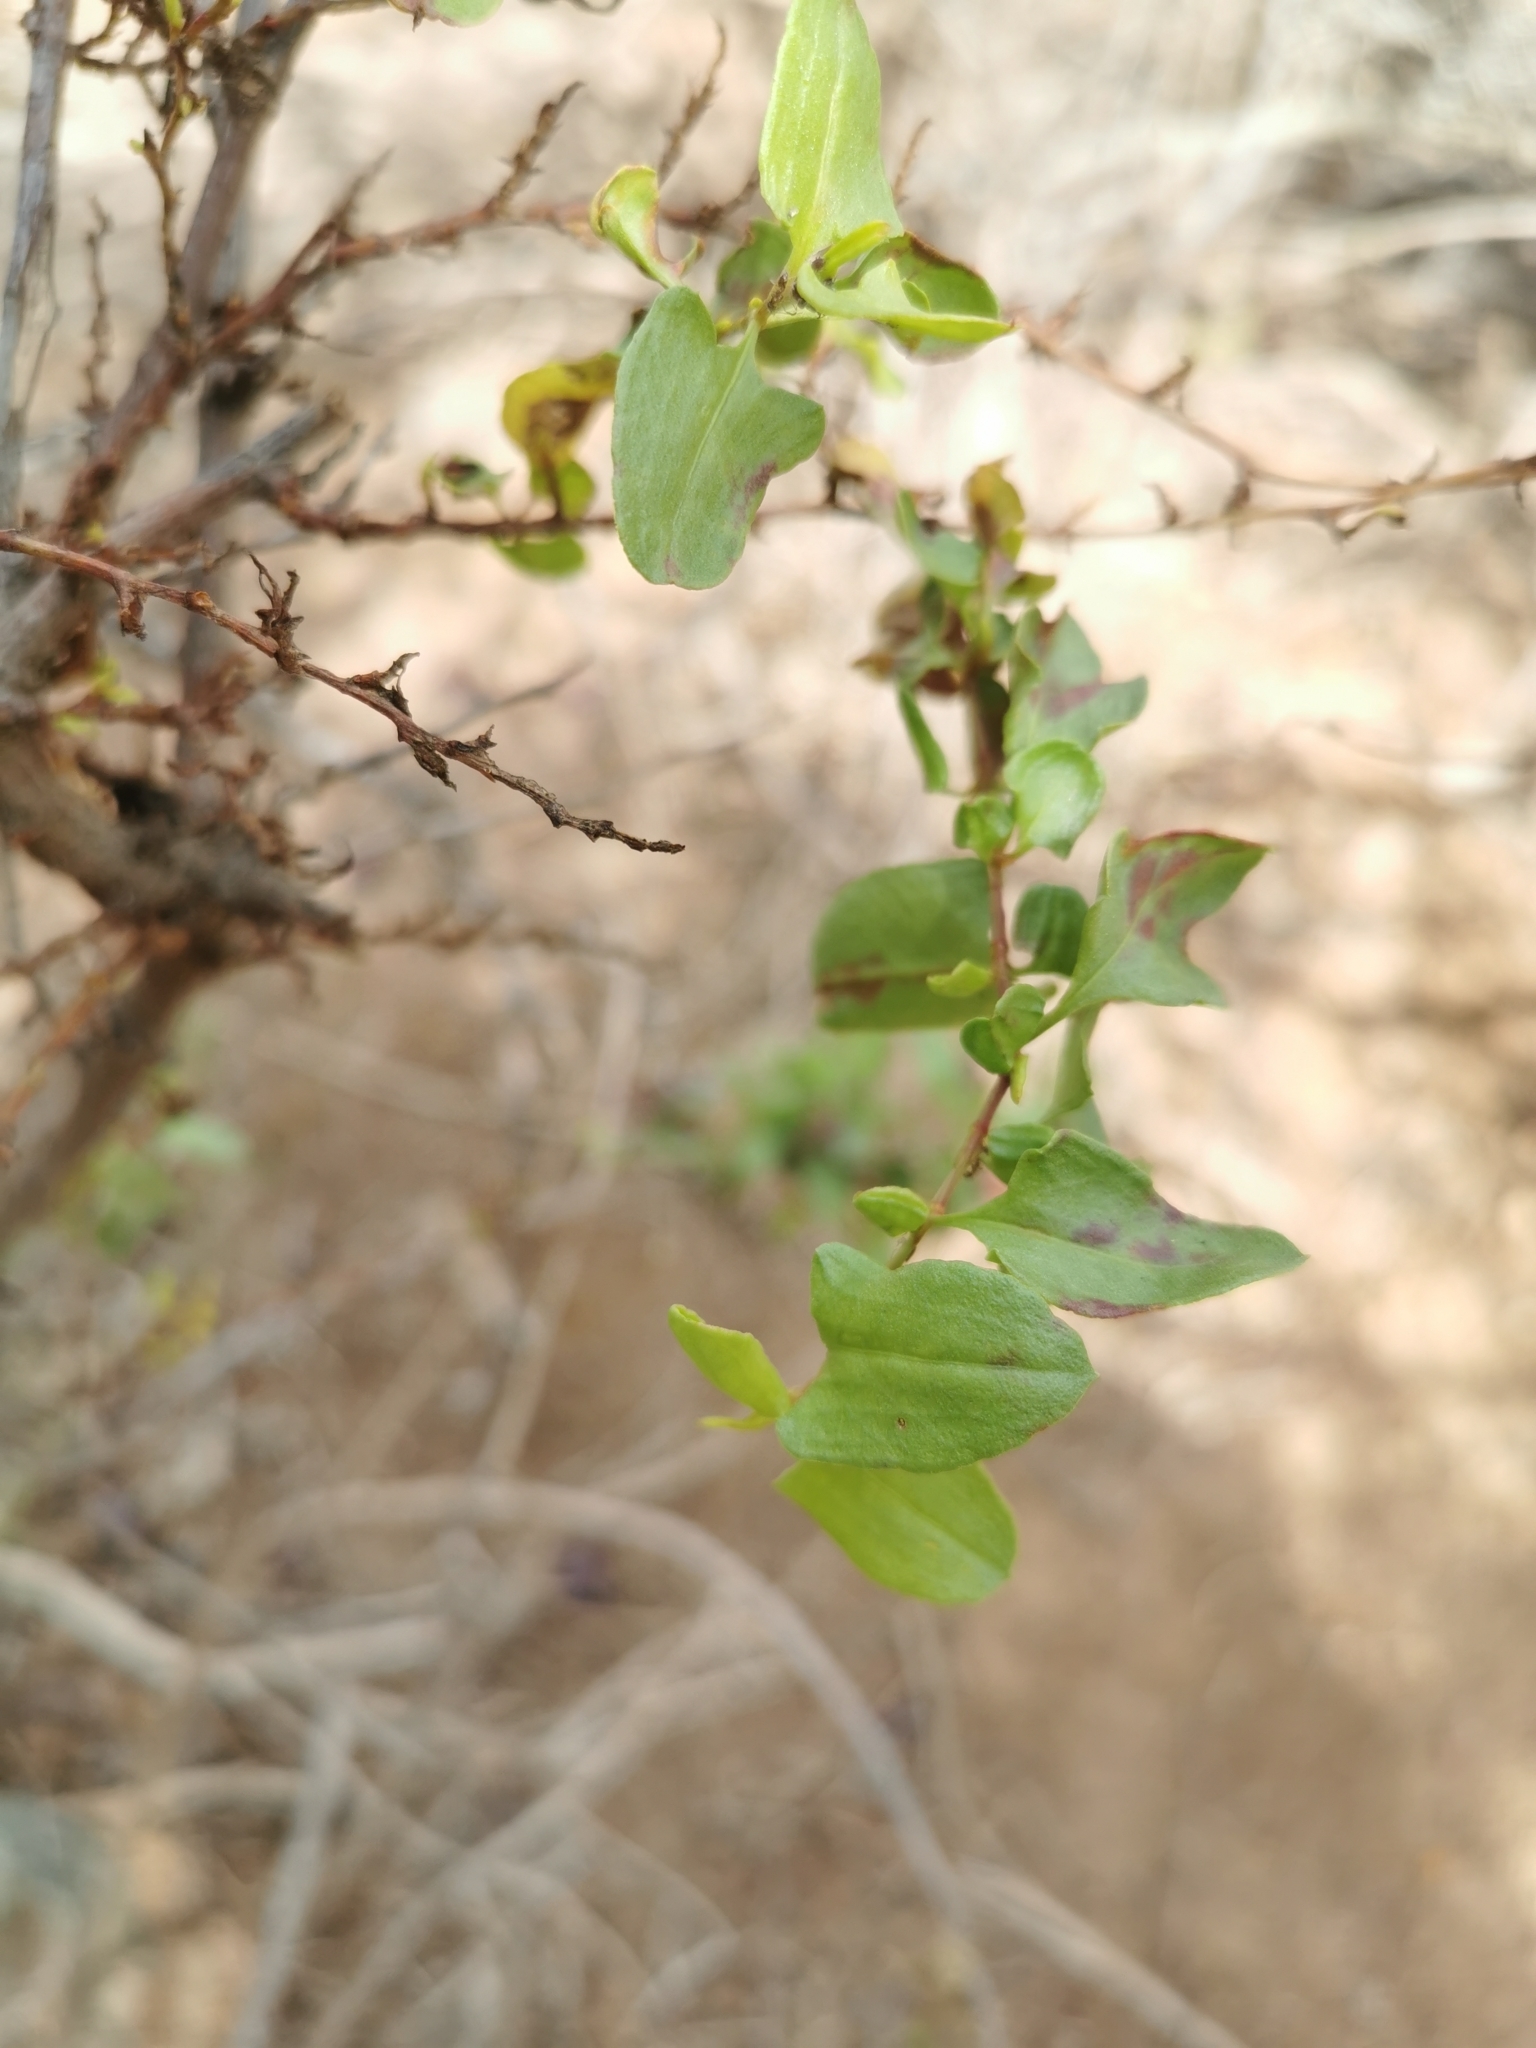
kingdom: Plantae
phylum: Tracheophyta
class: Magnoliopsida
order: Caryophyllales
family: Polygonaceae
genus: Muehlenbeckia
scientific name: Muehlenbeckia hastulata
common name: Wirevine
